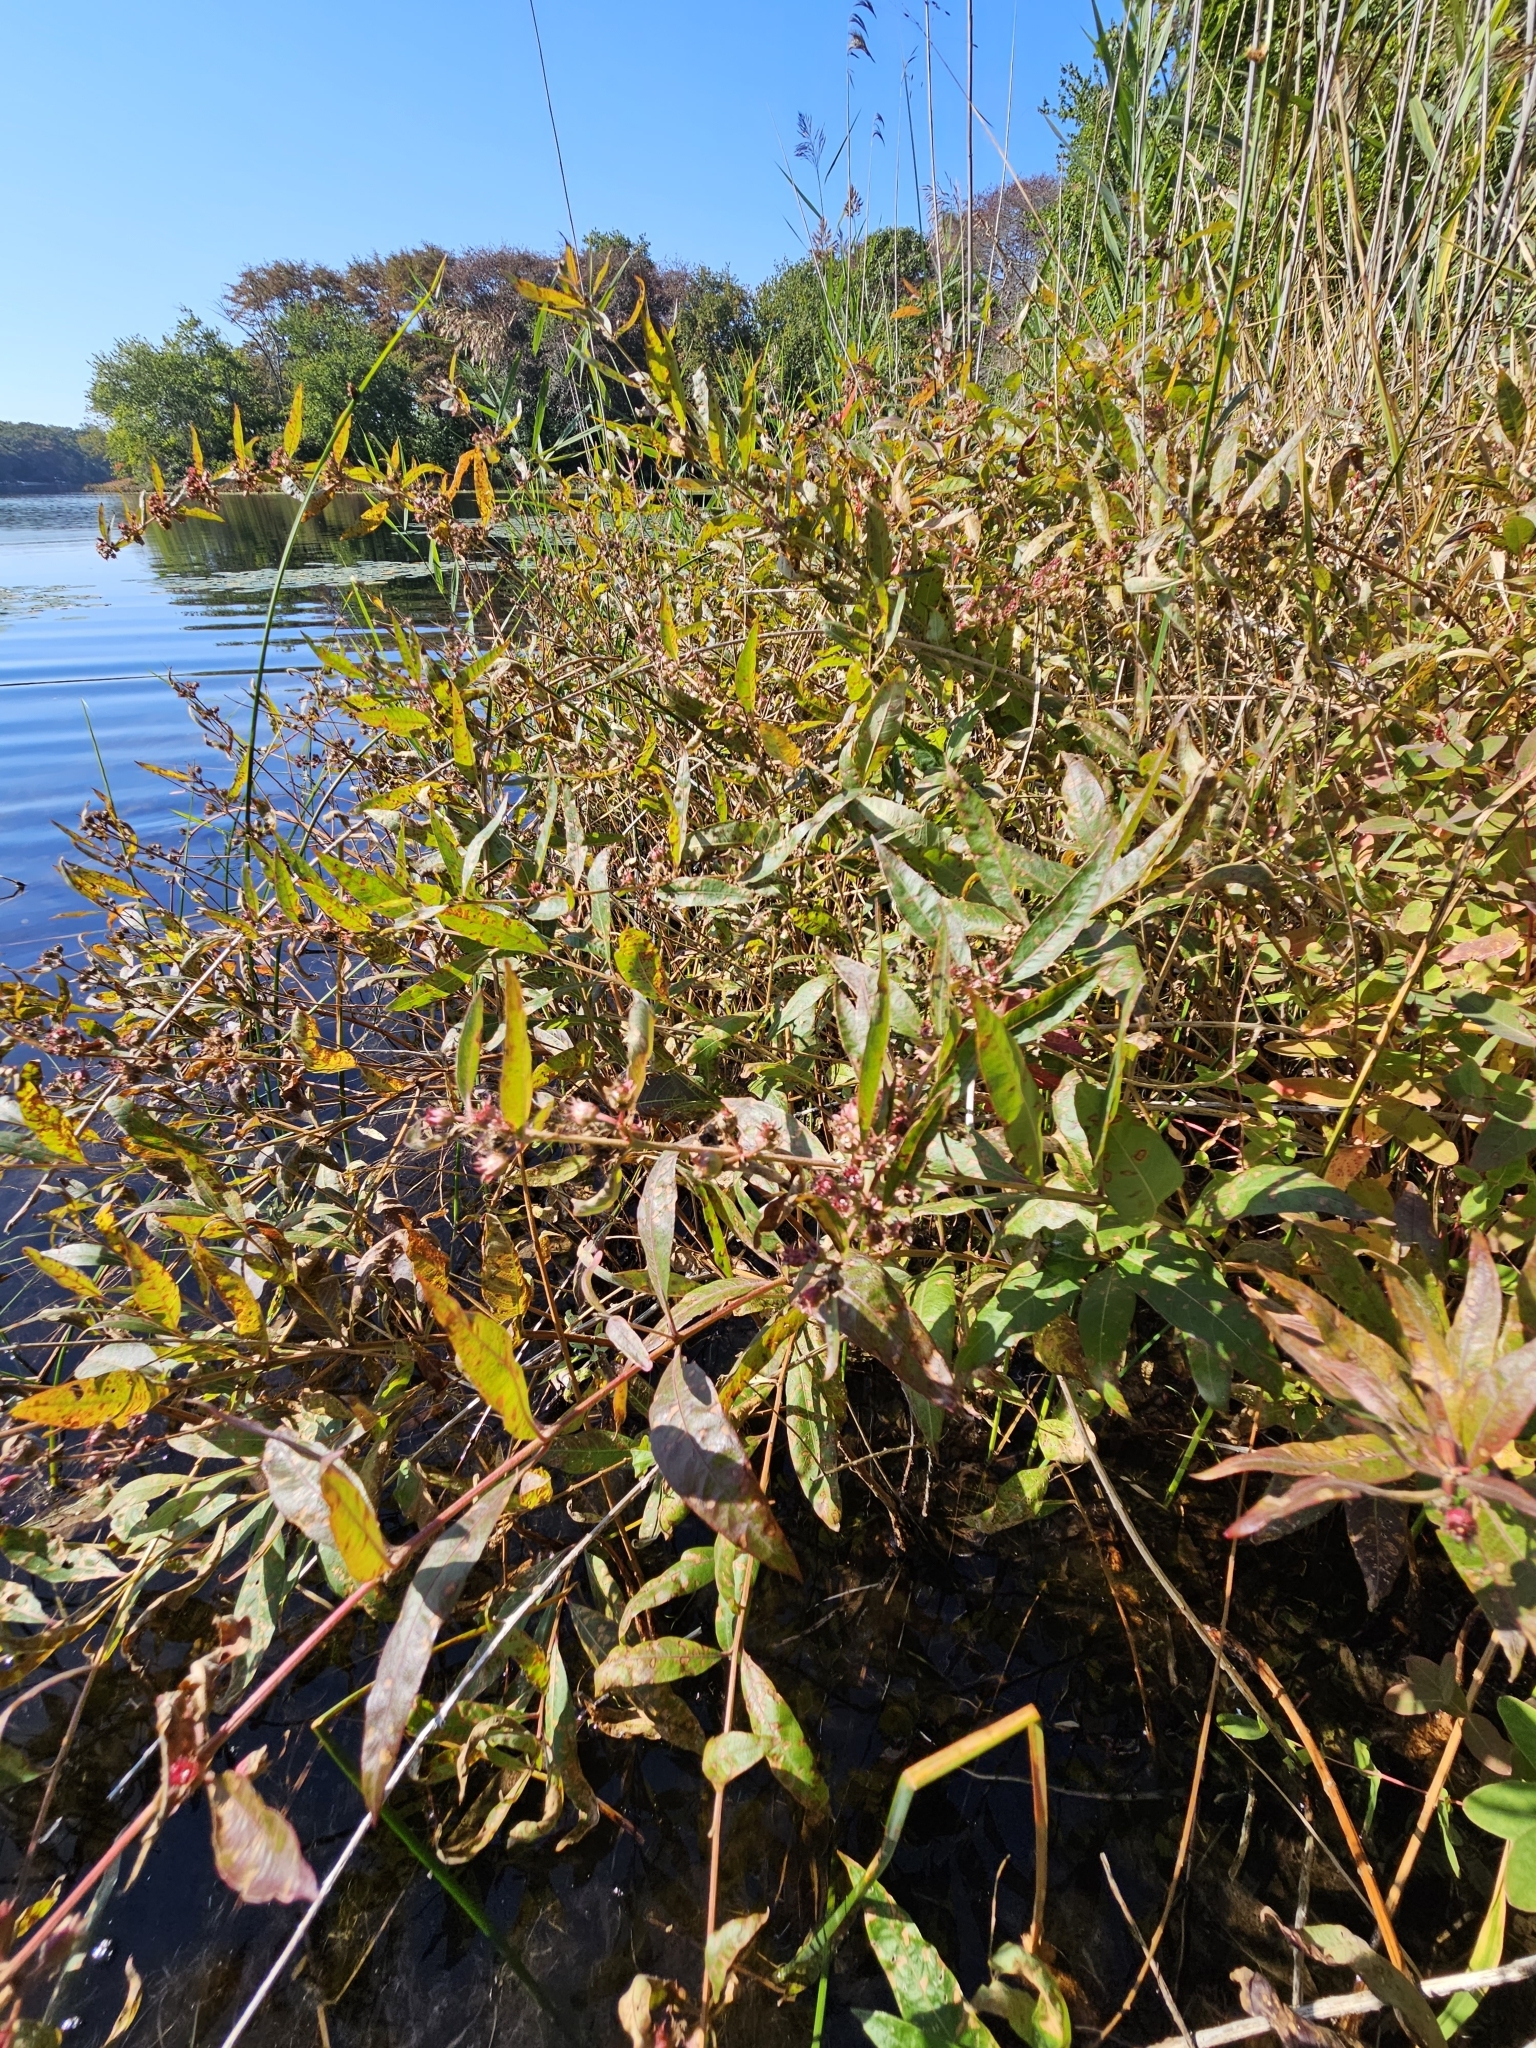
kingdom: Plantae
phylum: Tracheophyta
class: Magnoliopsida
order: Myrtales
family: Lythraceae
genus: Decodon
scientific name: Decodon verticillatus
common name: Hairy swamp loosestrife
